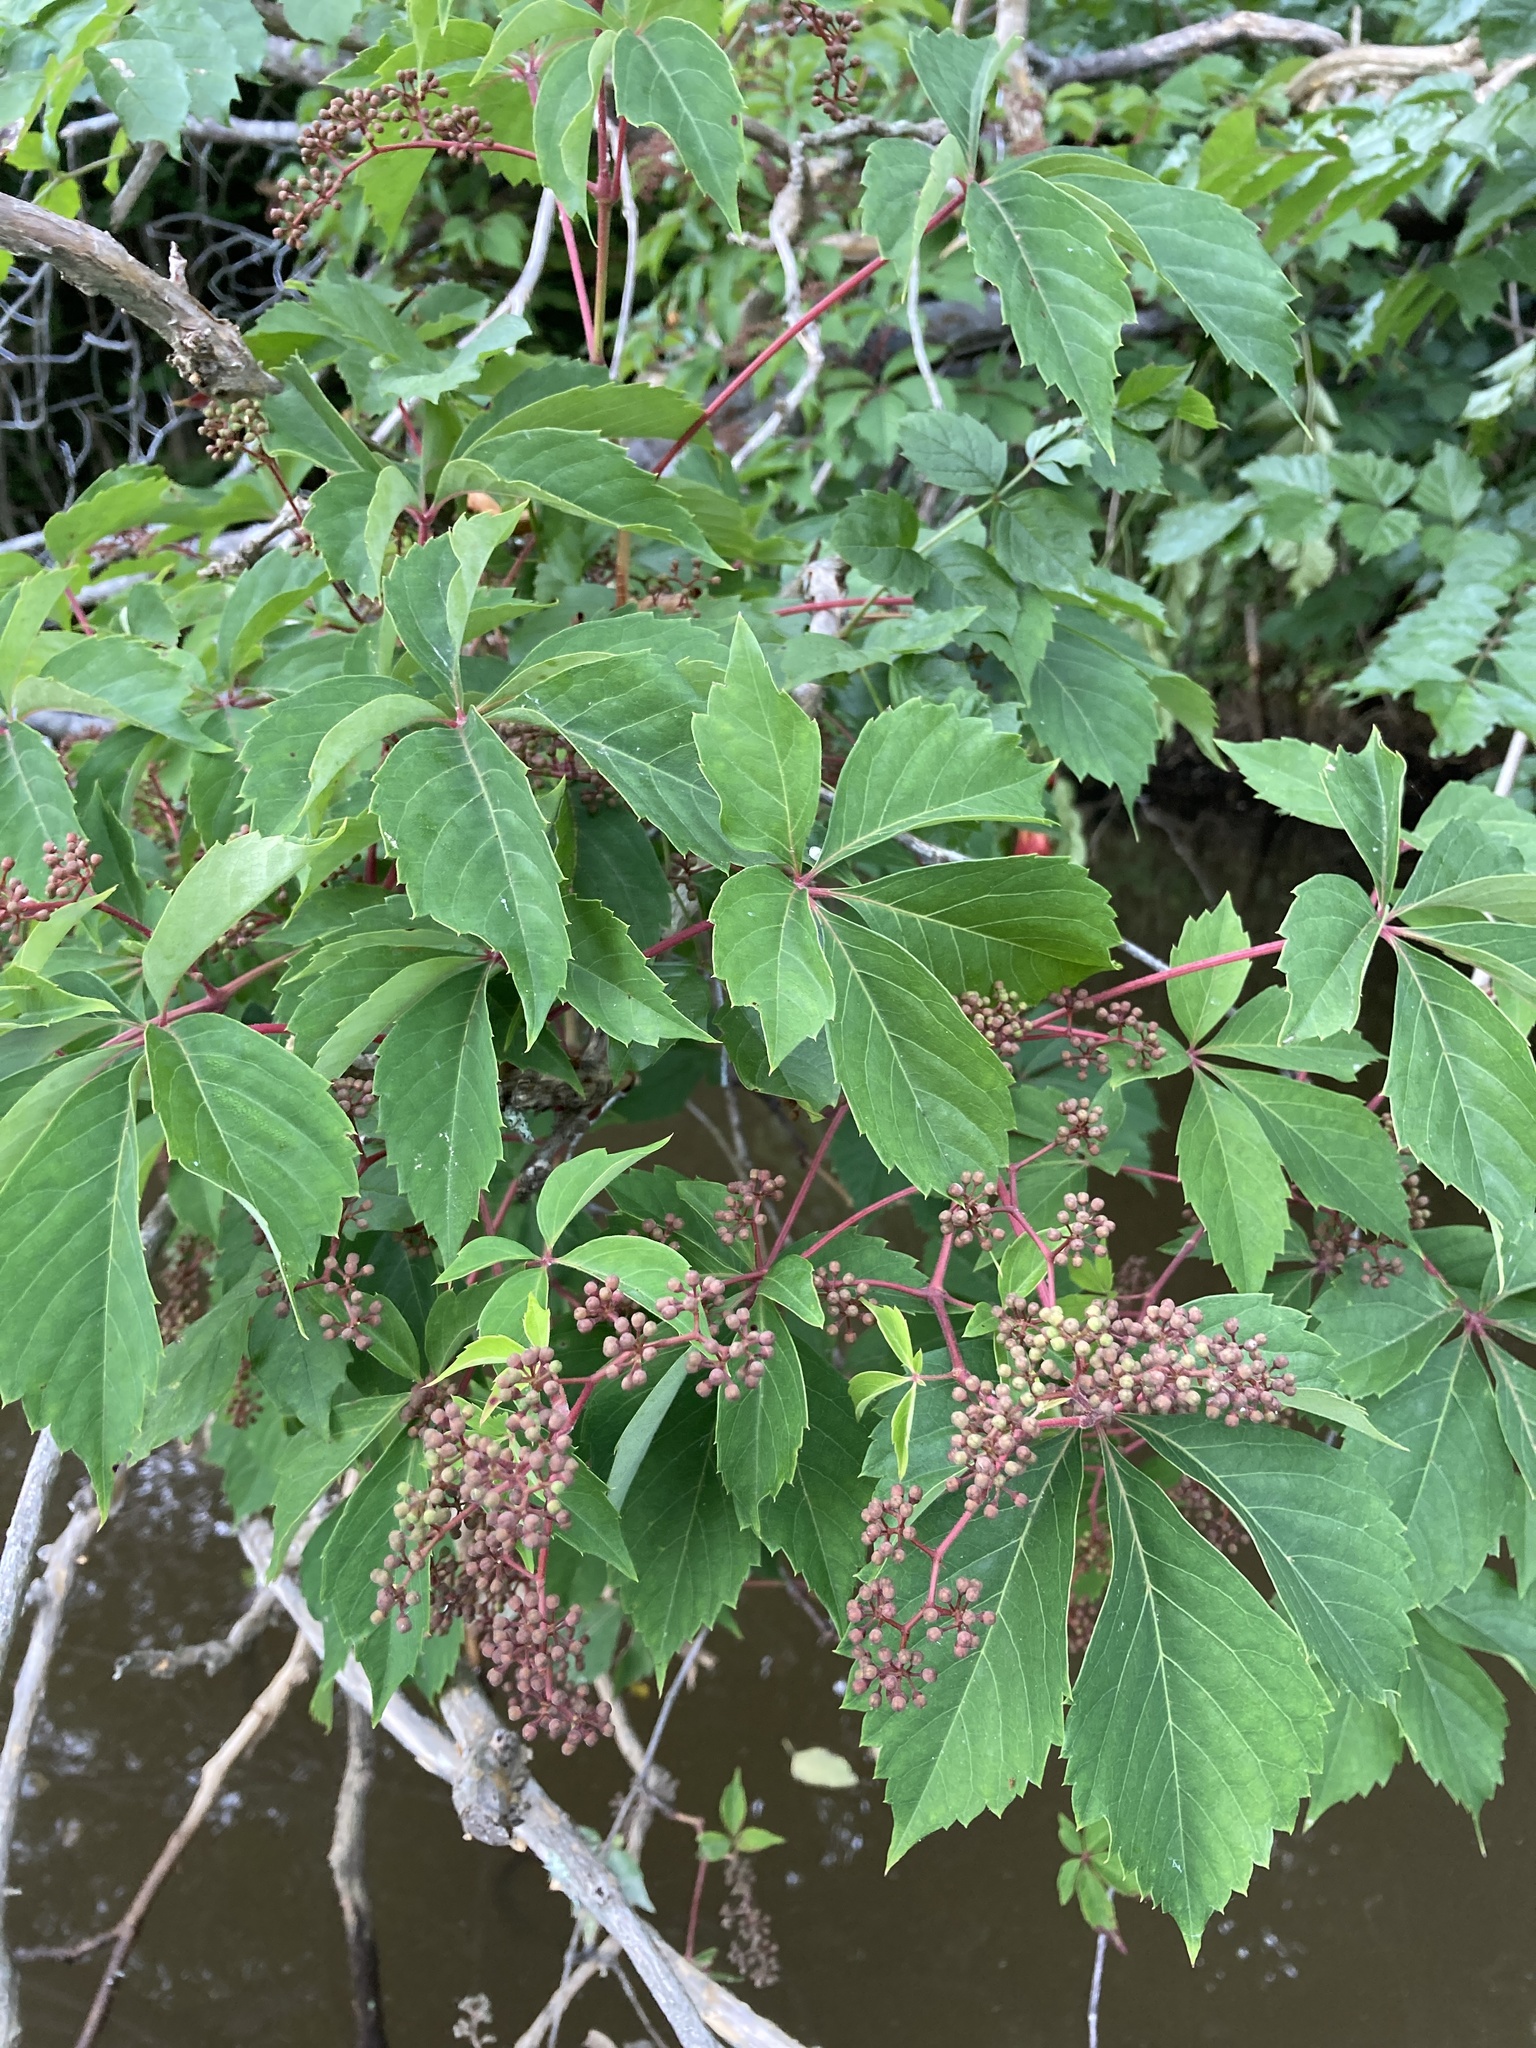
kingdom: Plantae
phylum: Tracheophyta
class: Magnoliopsida
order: Vitales
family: Vitaceae
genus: Parthenocissus
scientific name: Parthenocissus quinquefolia
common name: Virginia-creeper
